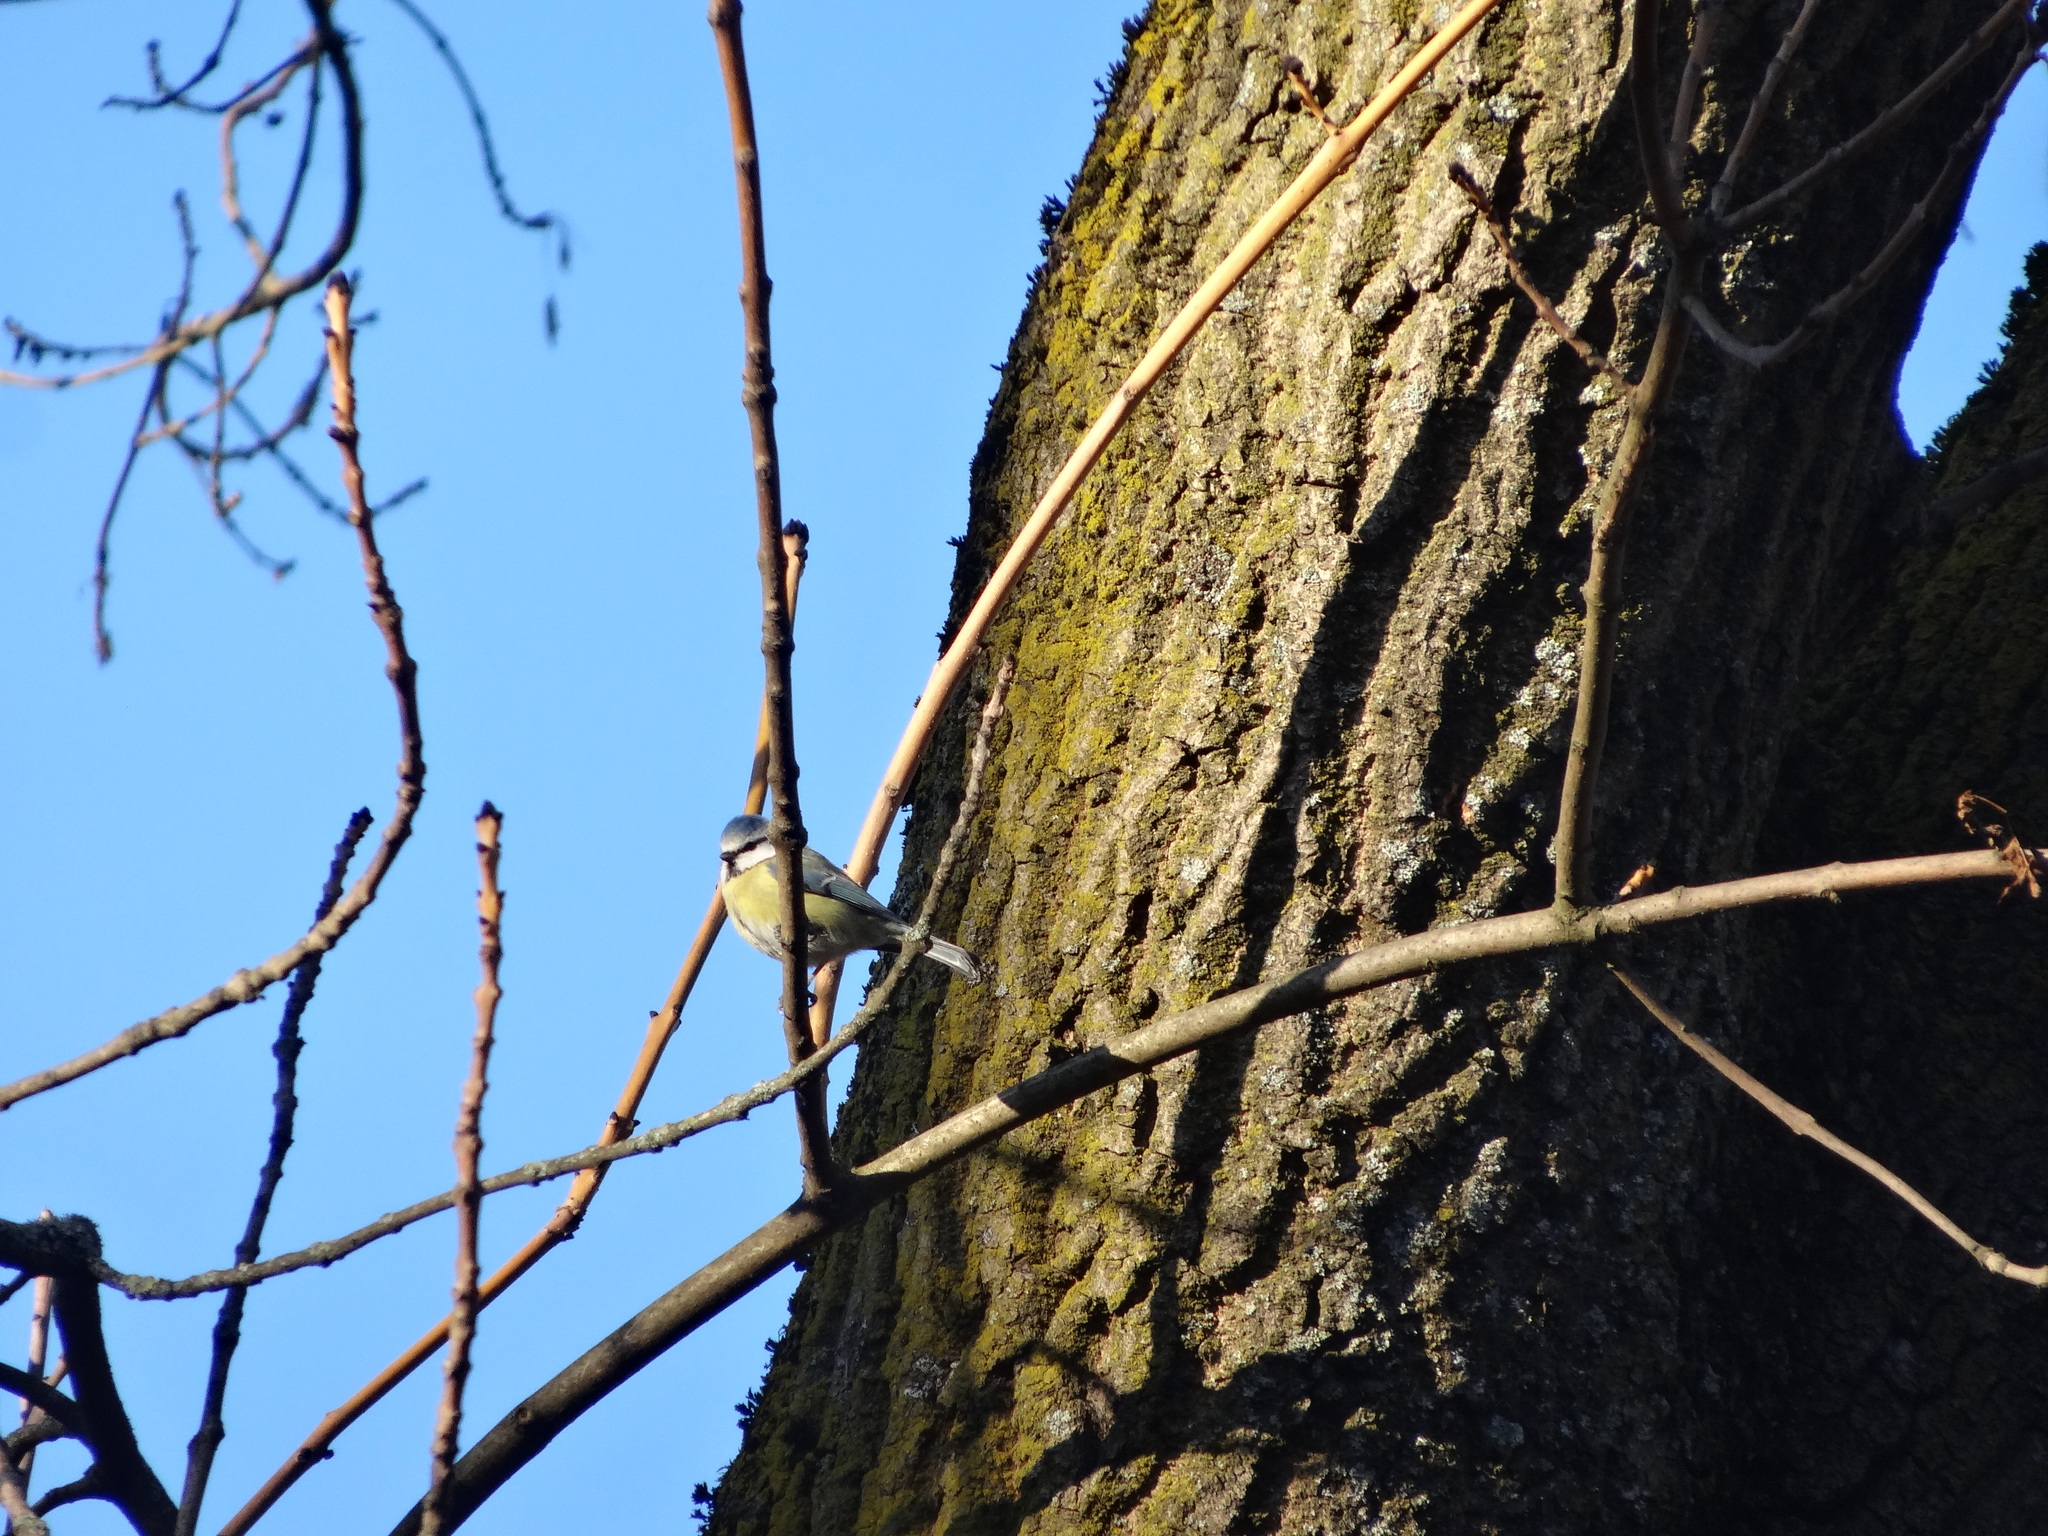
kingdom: Animalia
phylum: Chordata
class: Aves
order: Passeriformes
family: Paridae
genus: Cyanistes
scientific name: Cyanistes caeruleus
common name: Eurasian blue tit
